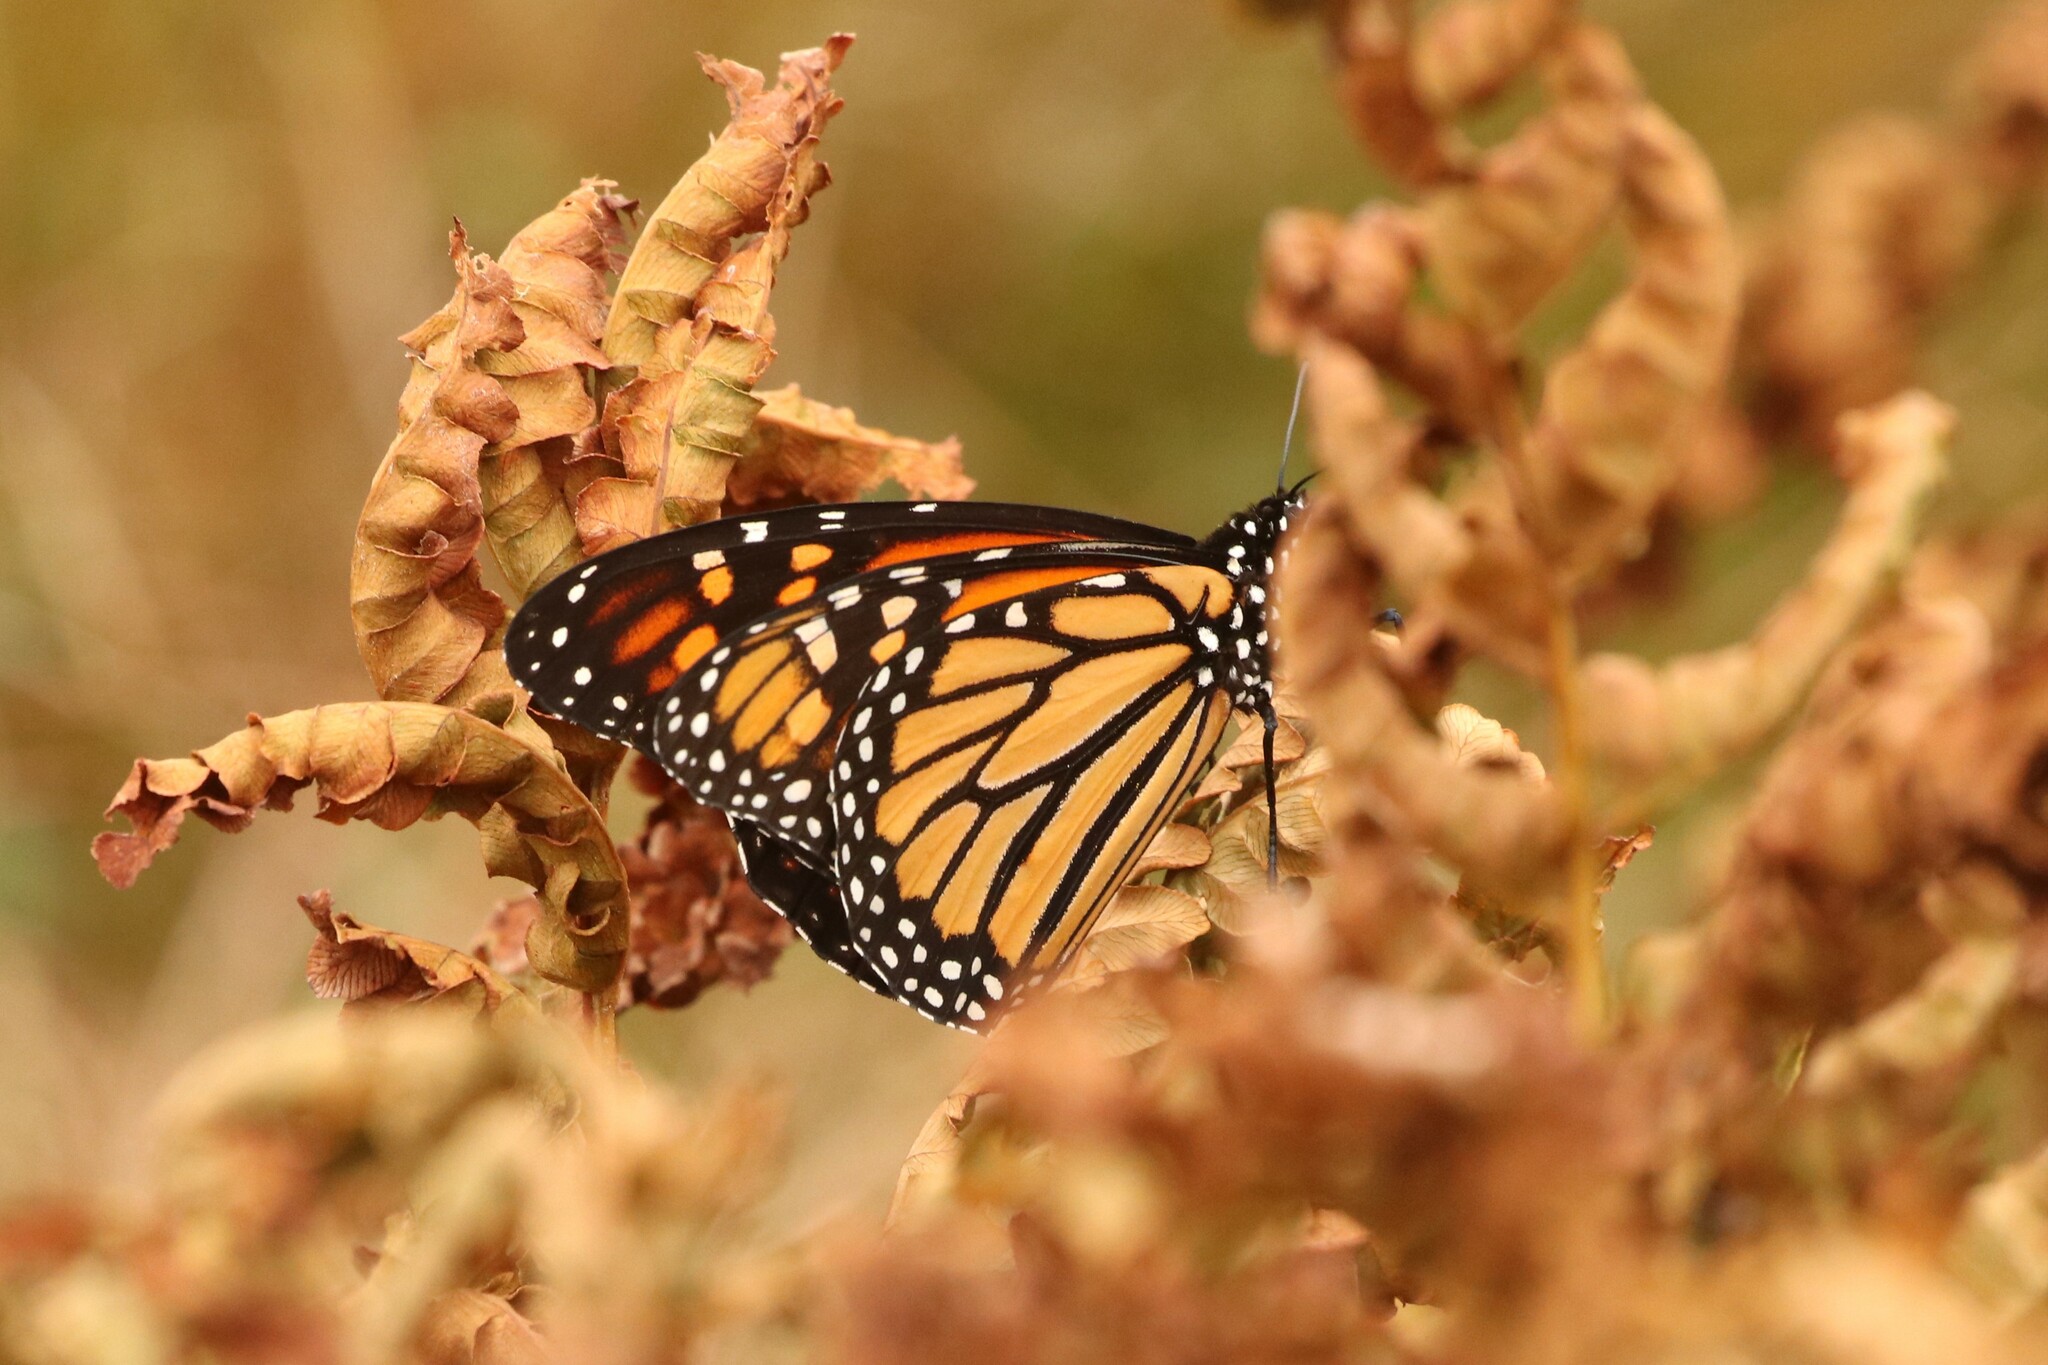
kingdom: Animalia
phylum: Arthropoda
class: Insecta
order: Lepidoptera
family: Nymphalidae
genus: Danaus
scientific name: Danaus plexippus
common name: Monarch
